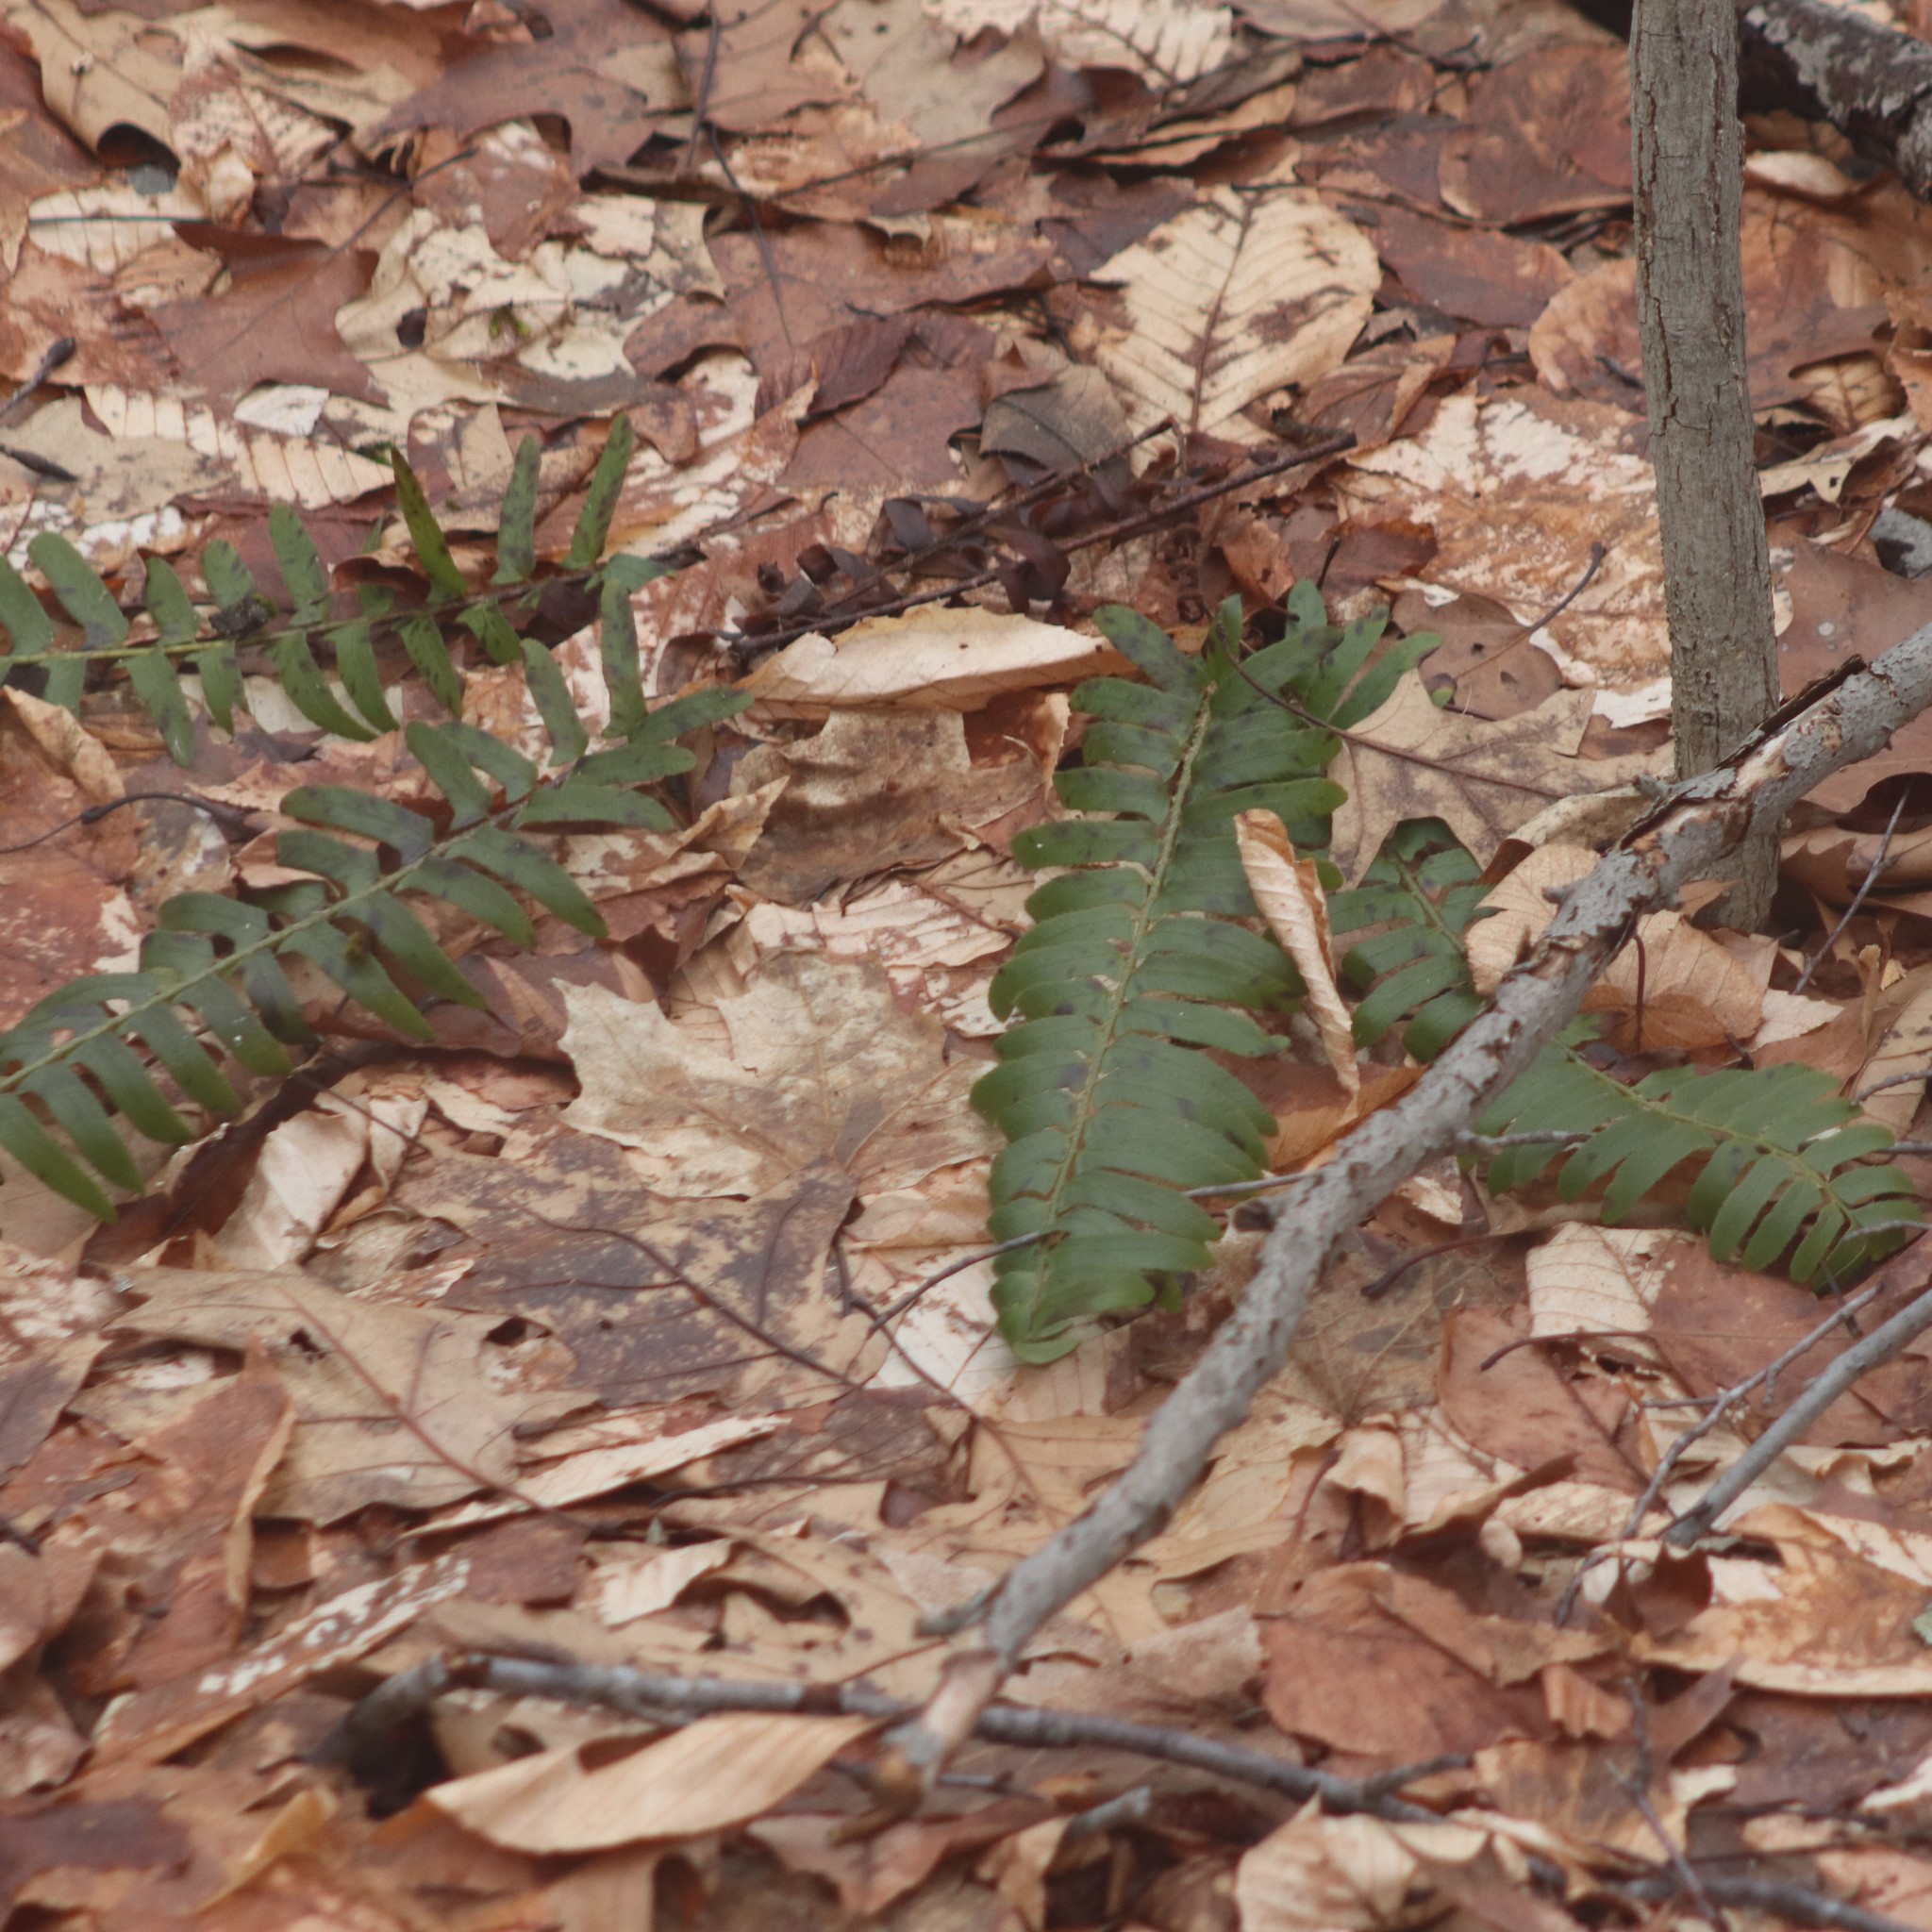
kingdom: Plantae
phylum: Tracheophyta
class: Polypodiopsida
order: Polypodiales
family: Dryopteridaceae
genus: Polystichum
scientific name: Polystichum acrostichoides
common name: Christmas fern
